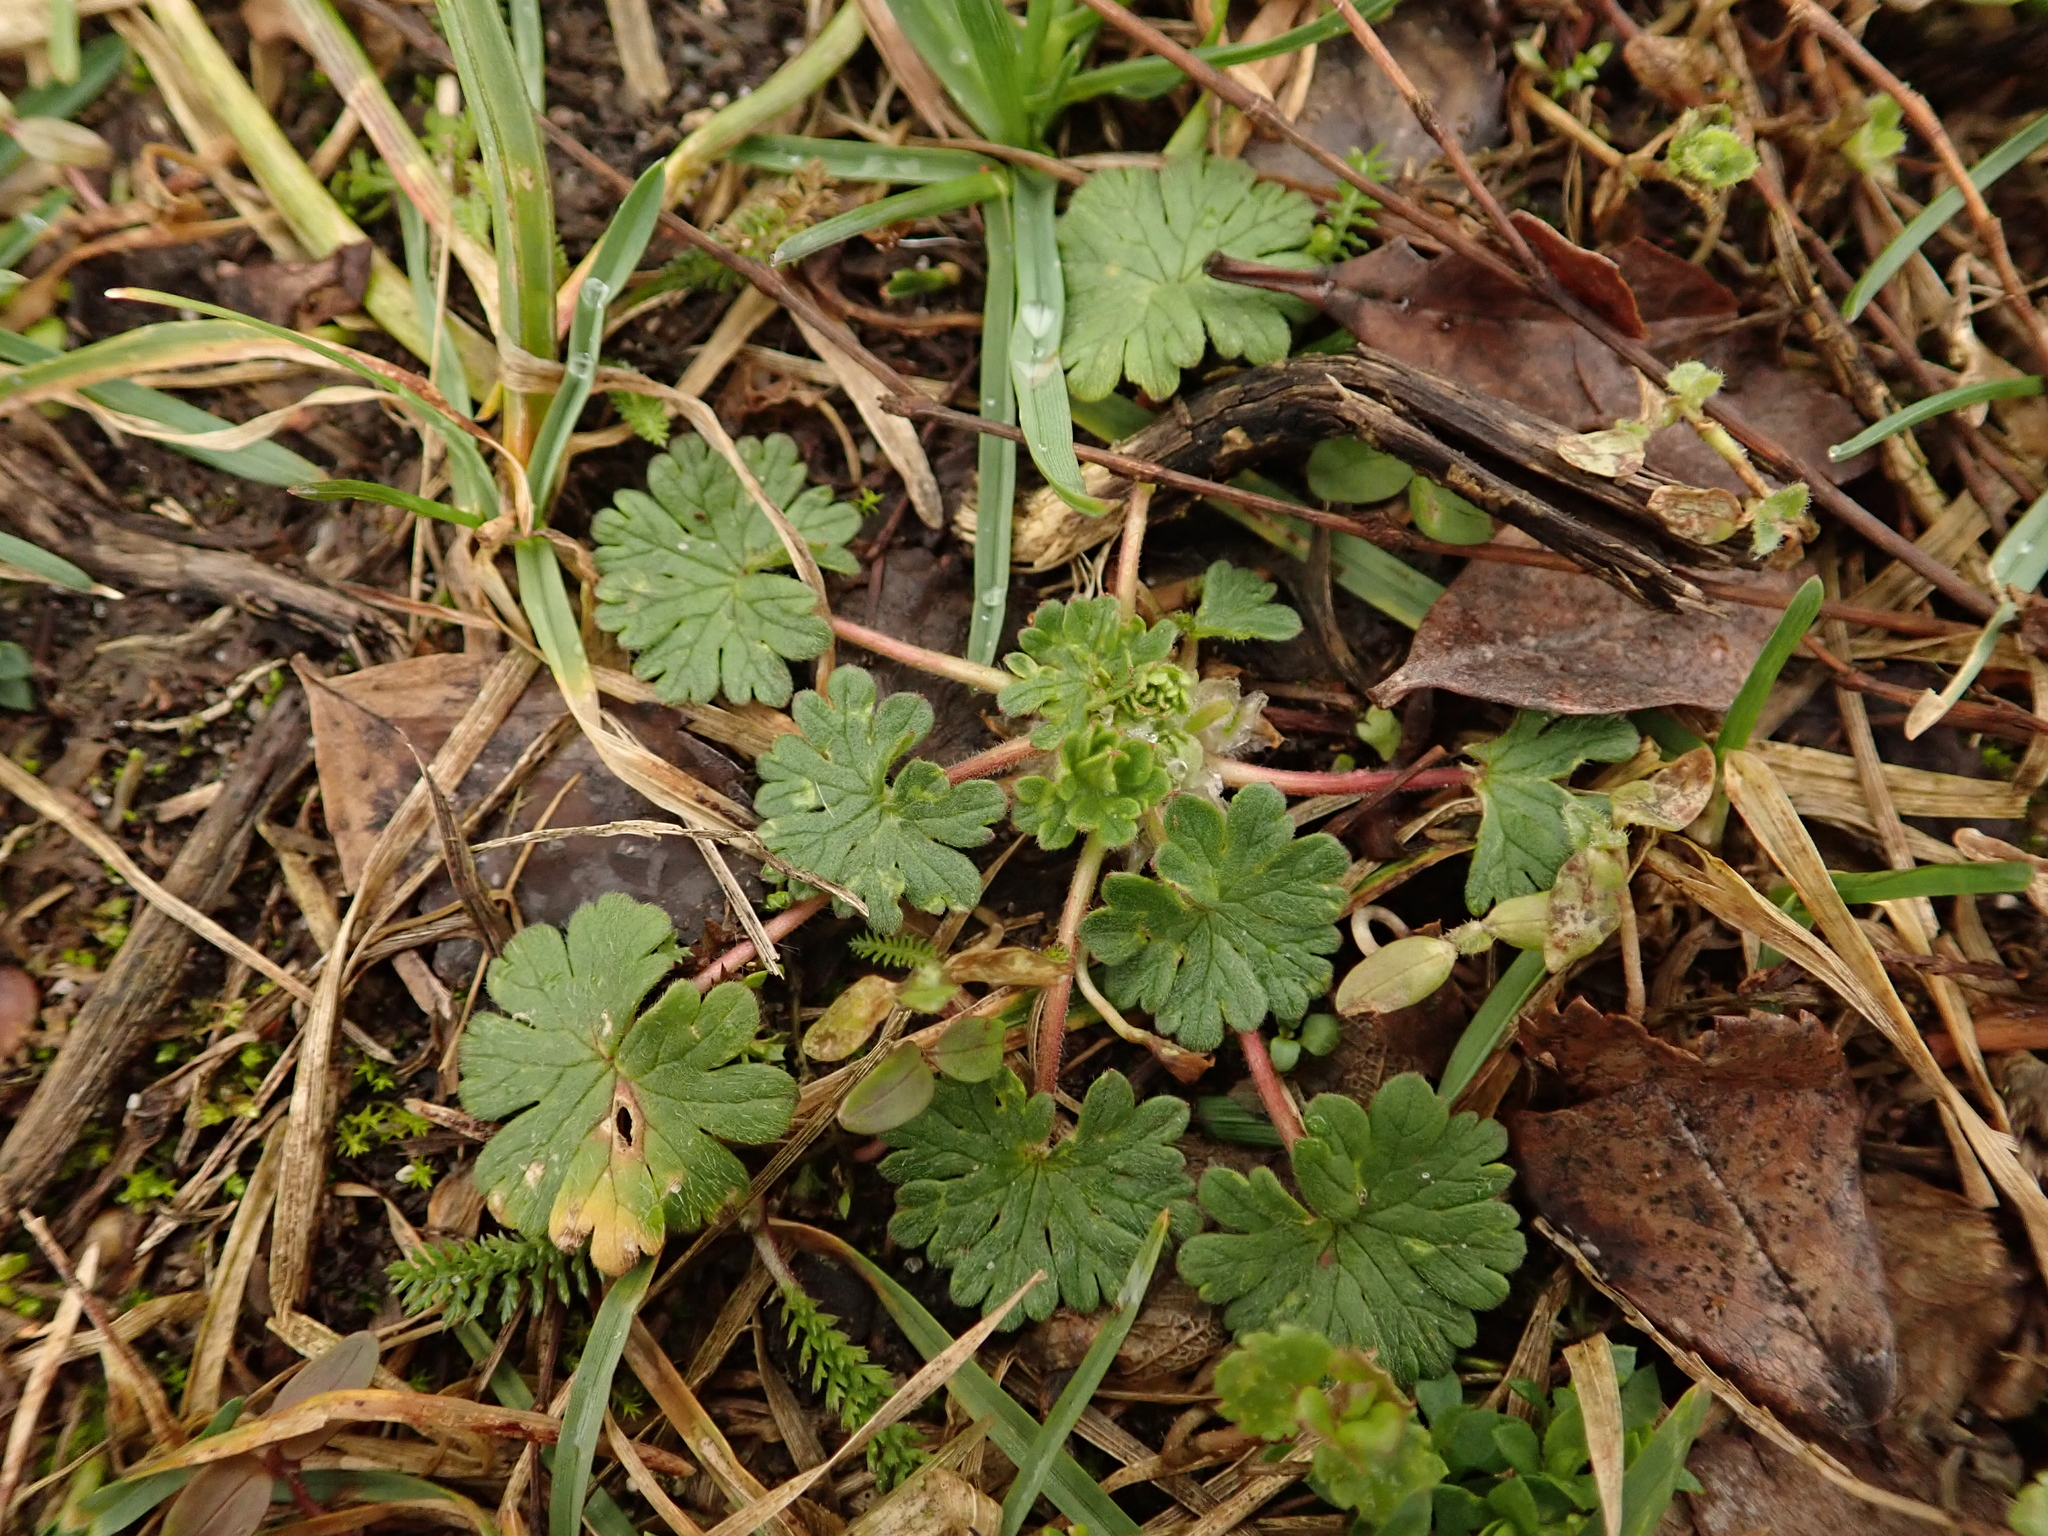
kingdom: Plantae
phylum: Tracheophyta
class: Magnoliopsida
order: Geraniales
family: Geraniaceae
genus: Geranium
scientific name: Geranium molle
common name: Dove's-foot crane's-bill
